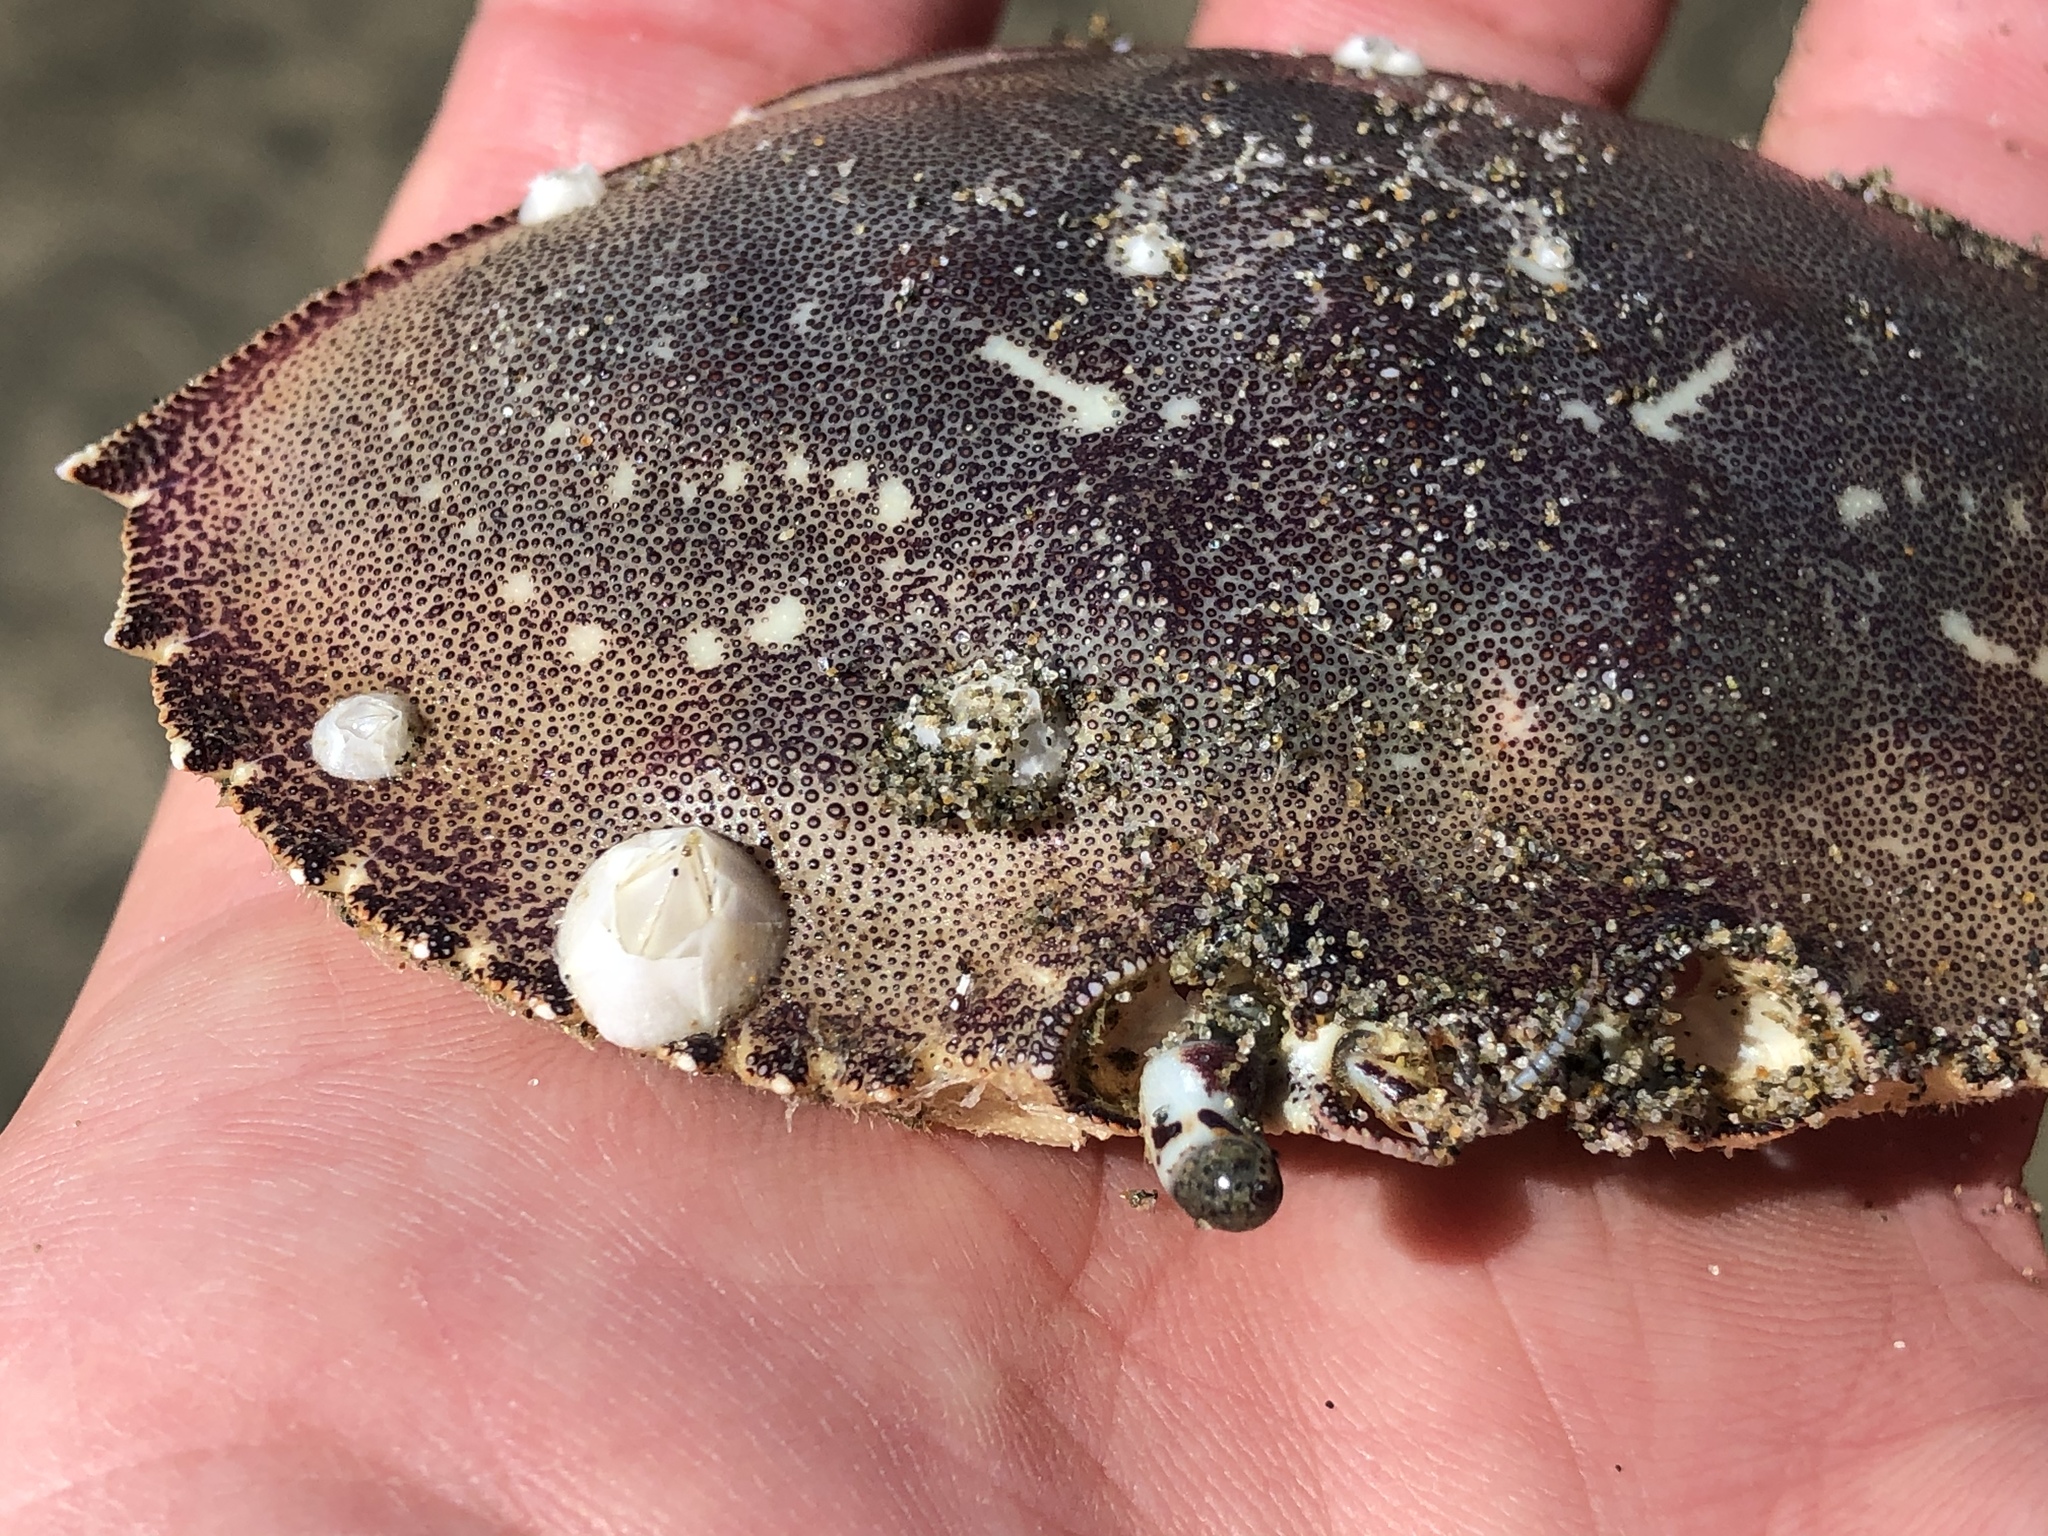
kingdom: Animalia
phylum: Arthropoda
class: Malacostraca
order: Decapoda
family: Cancridae
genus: Metacarcinus
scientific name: Metacarcinus magister
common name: Californian crab
